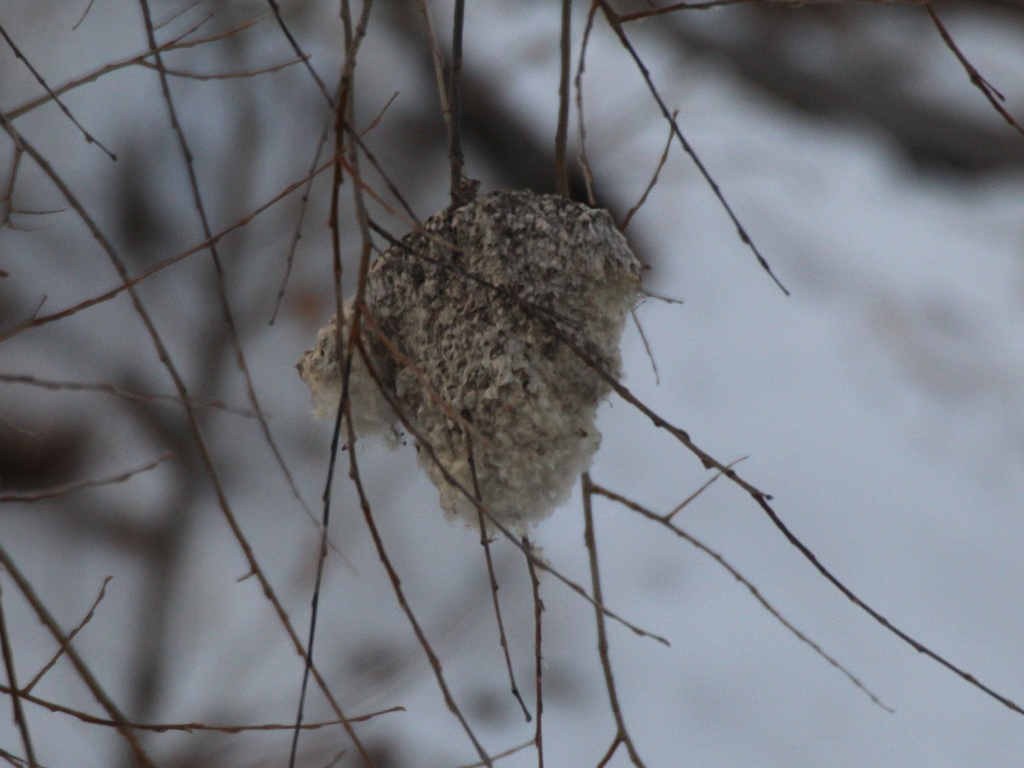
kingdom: Animalia
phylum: Chordata
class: Aves
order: Passeriformes
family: Remizidae
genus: Remiz
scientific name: Remiz pendulinus
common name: Eurasian penduline tit
